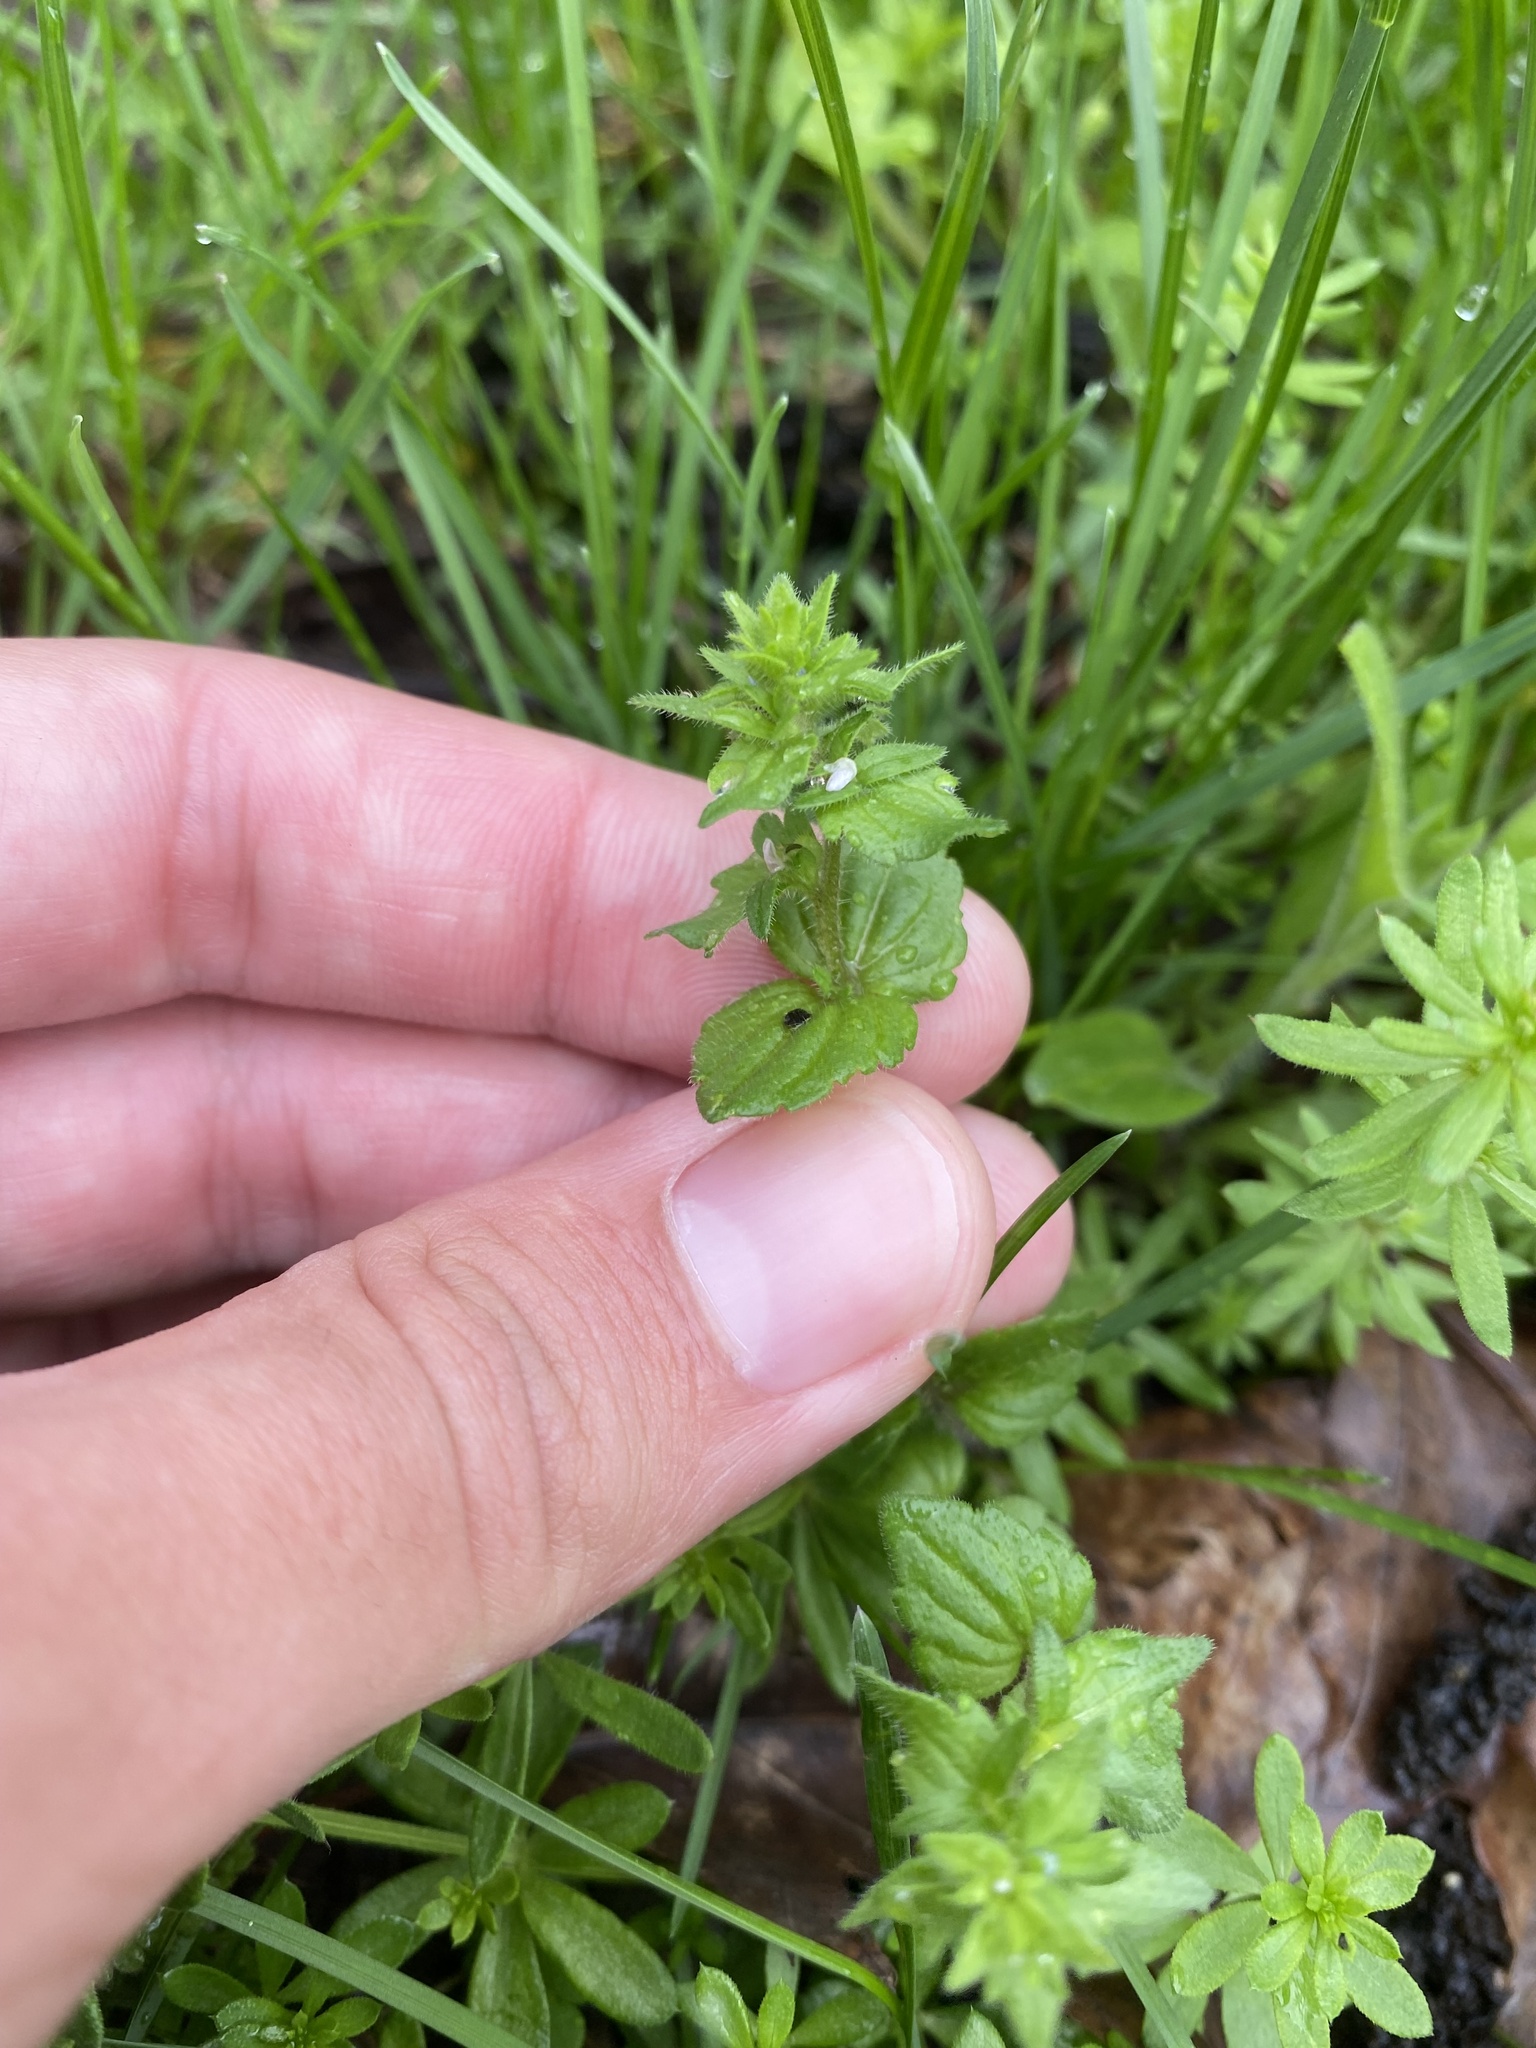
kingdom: Plantae
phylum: Tracheophyta
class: Magnoliopsida
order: Lamiales
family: Plantaginaceae
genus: Veronica
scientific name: Veronica arvensis
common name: Corn speedwell
